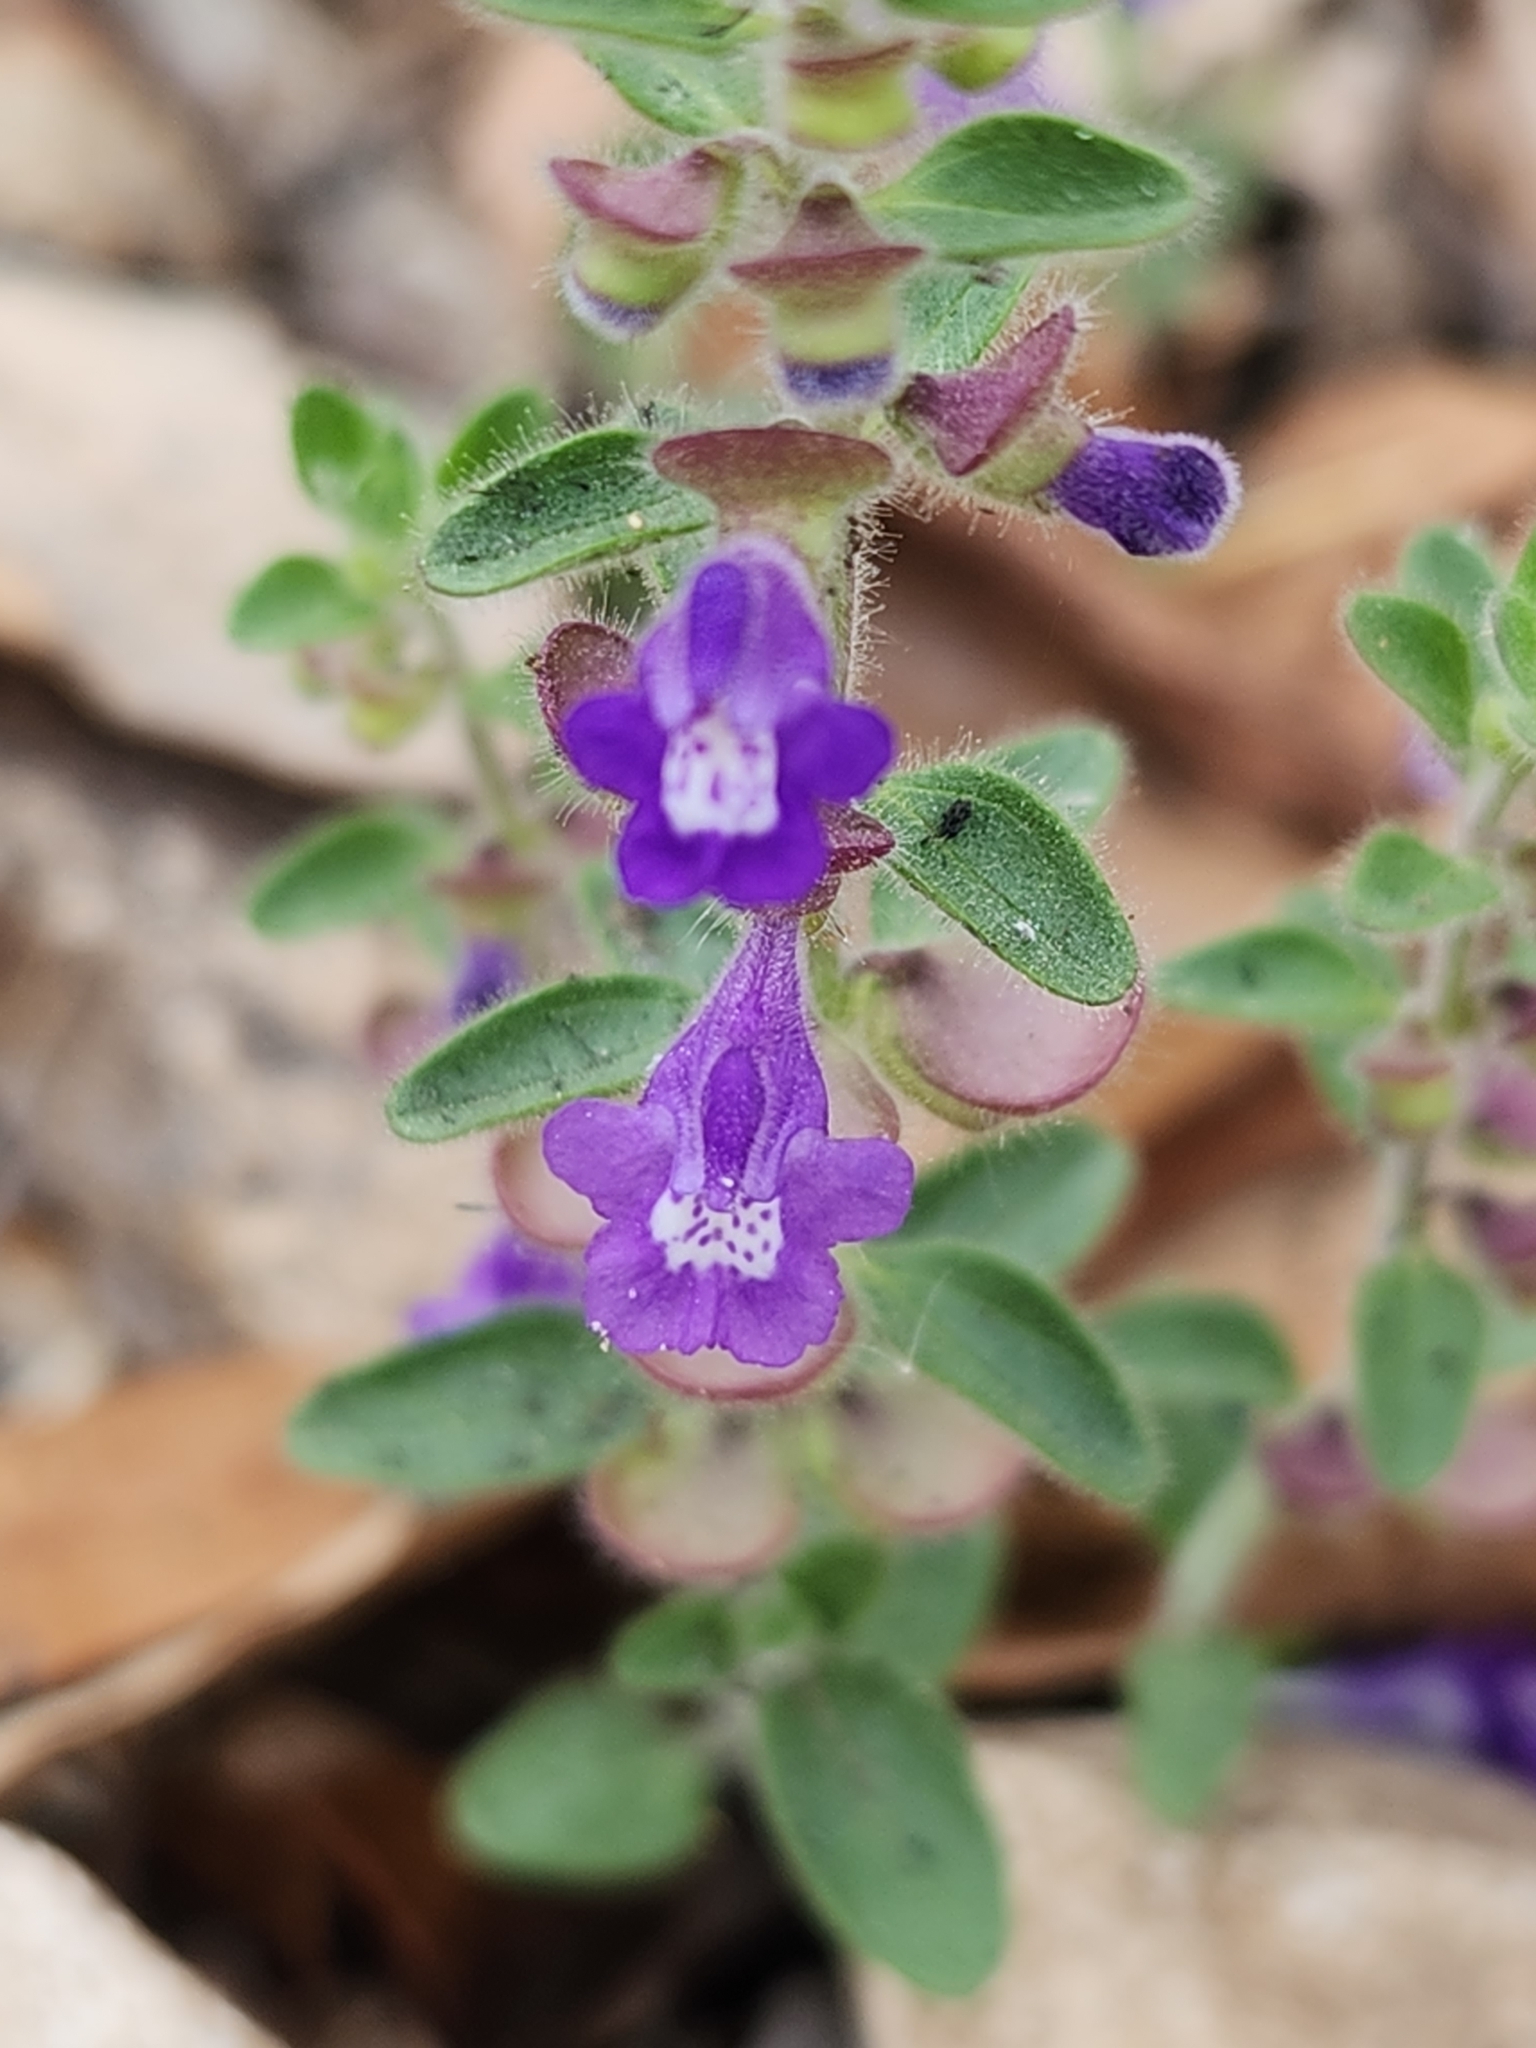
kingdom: Plantae
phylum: Tracheophyta
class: Magnoliopsida
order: Lamiales
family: Lamiaceae
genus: Scutellaria
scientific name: Scutellaria drummondii
